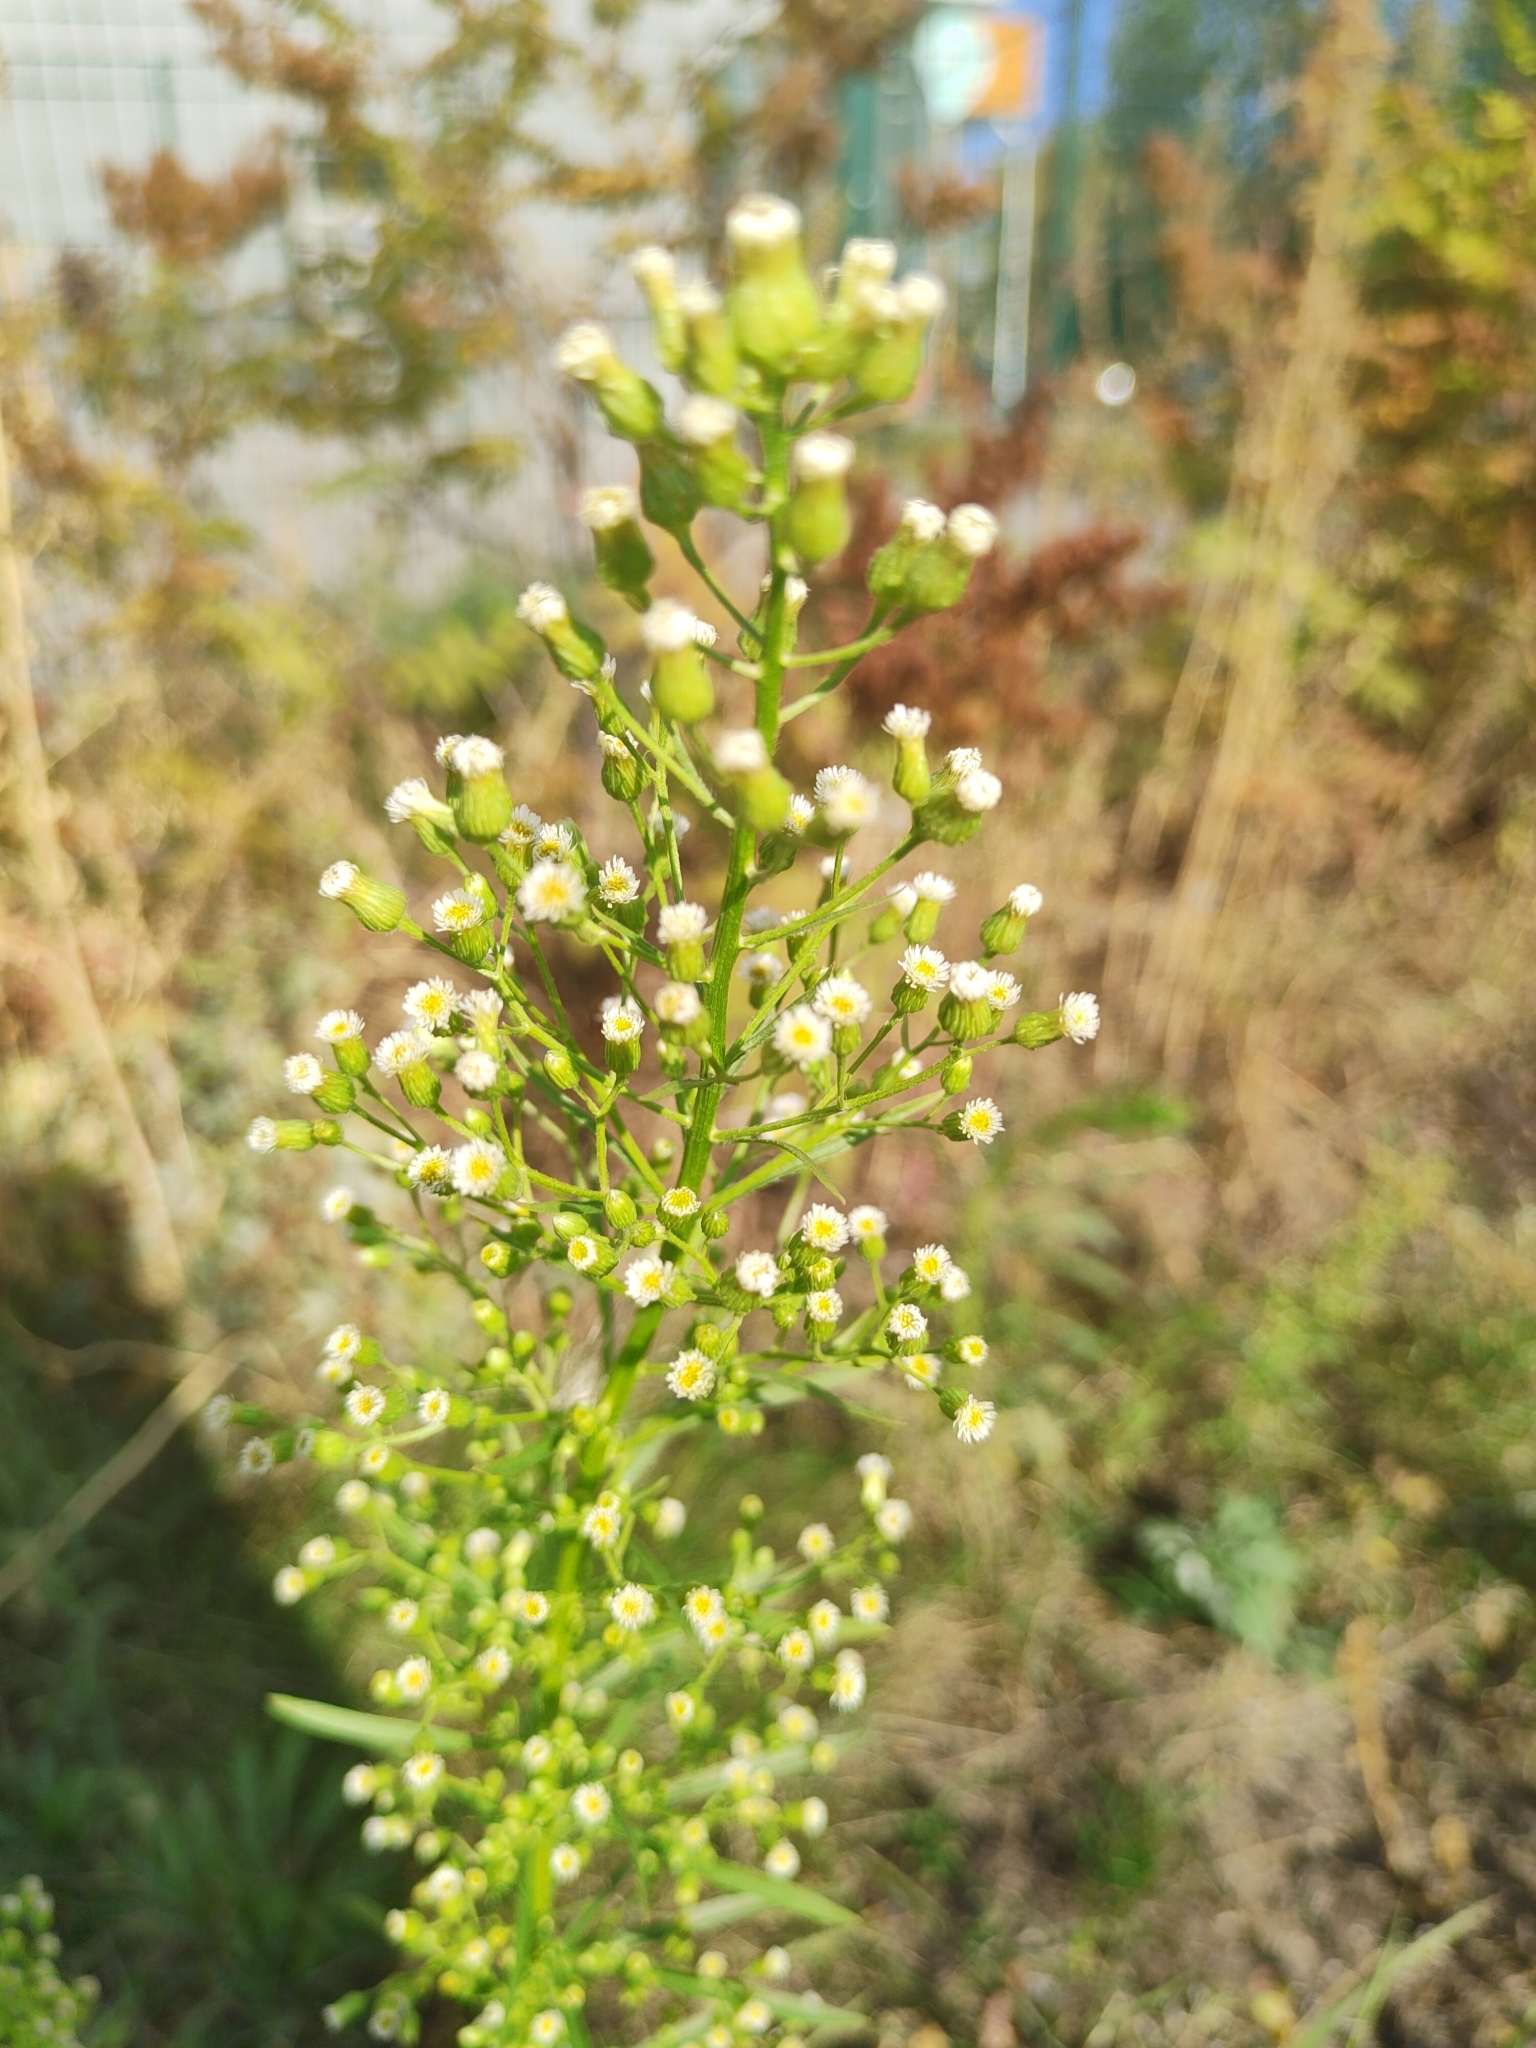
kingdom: Plantae
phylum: Tracheophyta
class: Magnoliopsida
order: Asterales
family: Asteraceae
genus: Erigeron
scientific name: Erigeron canadensis
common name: Canadian fleabane
